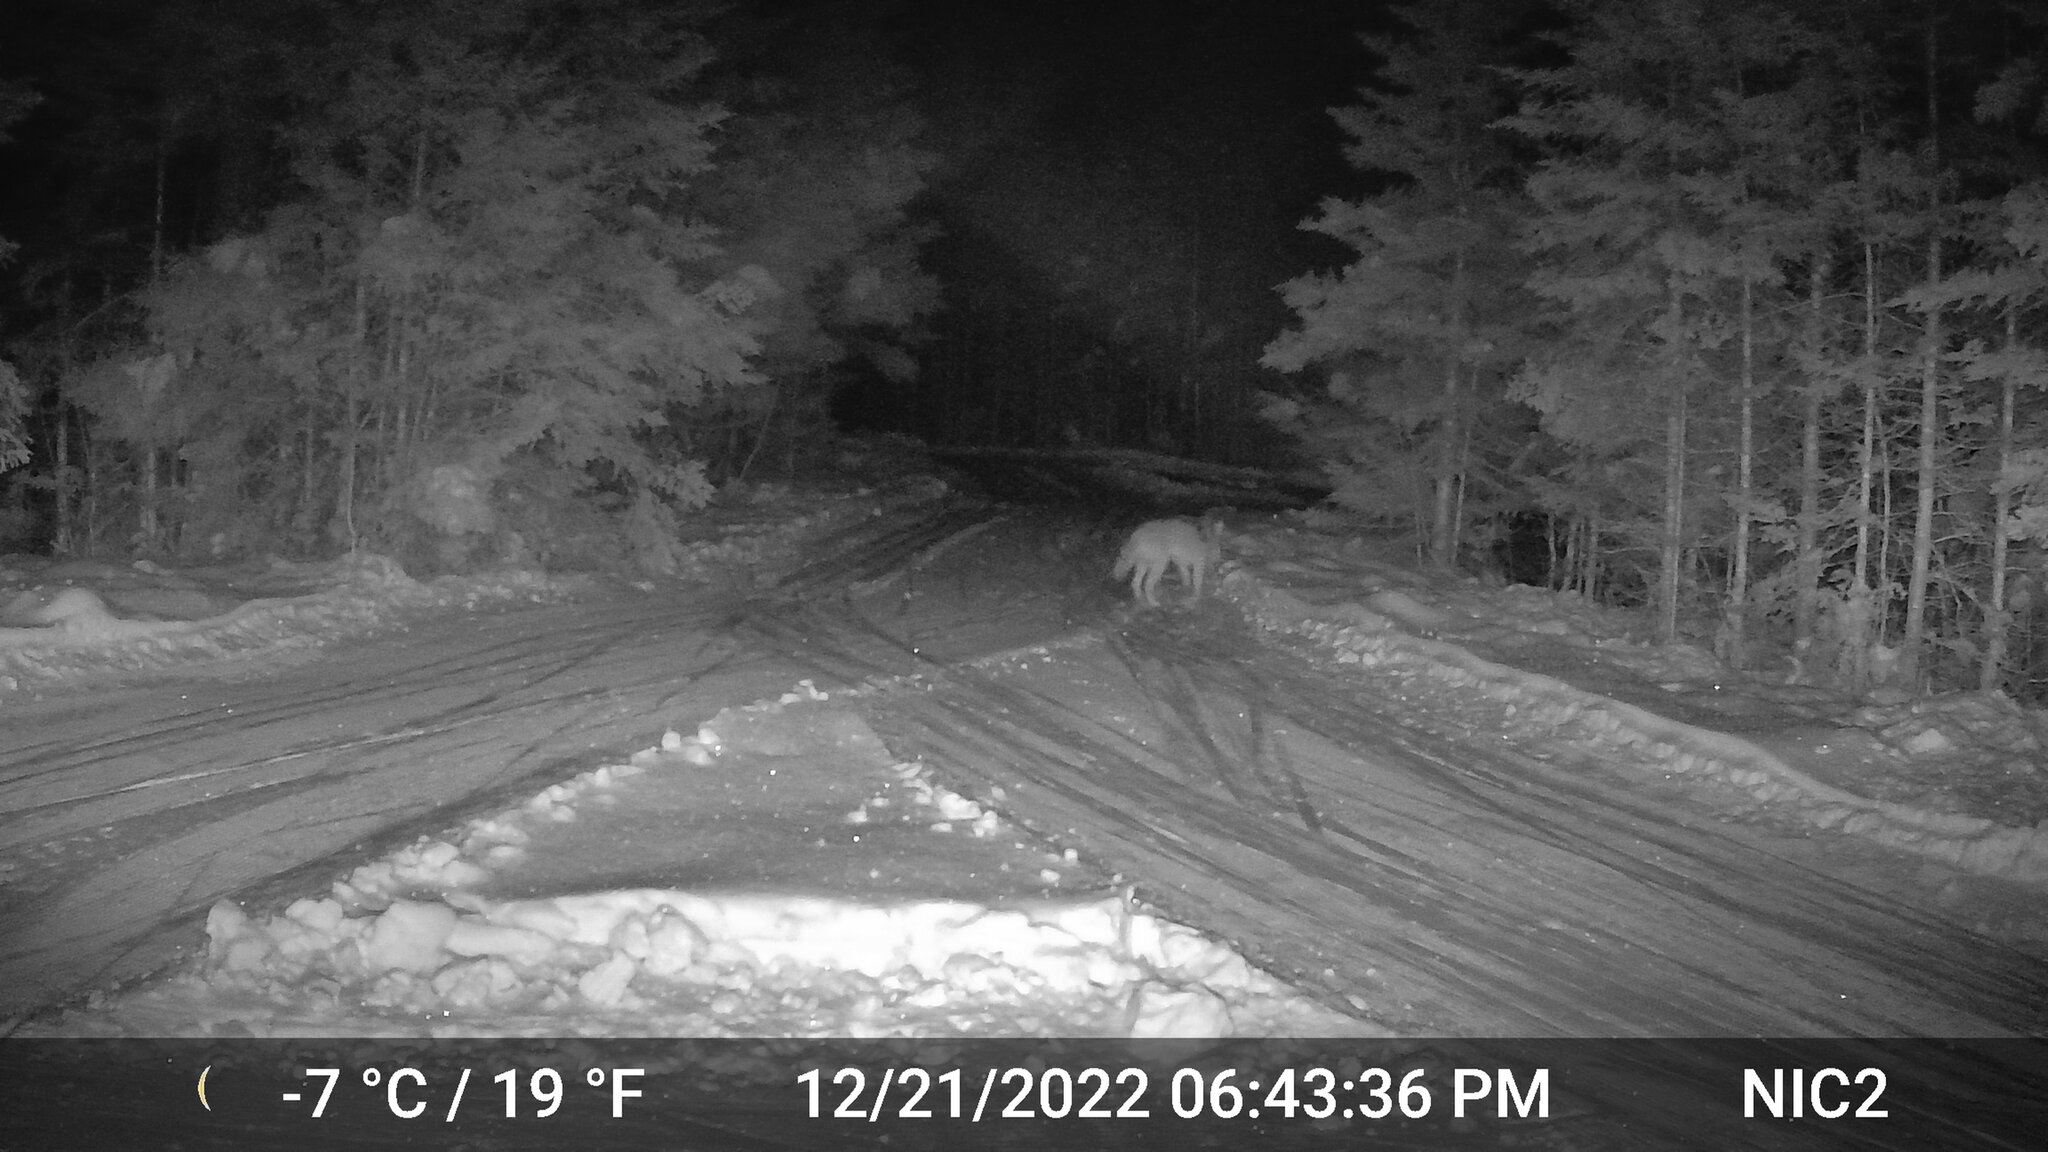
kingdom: Animalia
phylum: Chordata
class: Mammalia
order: Carnivora
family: Canidae
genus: Canis
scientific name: Canis latrans
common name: Coyote
